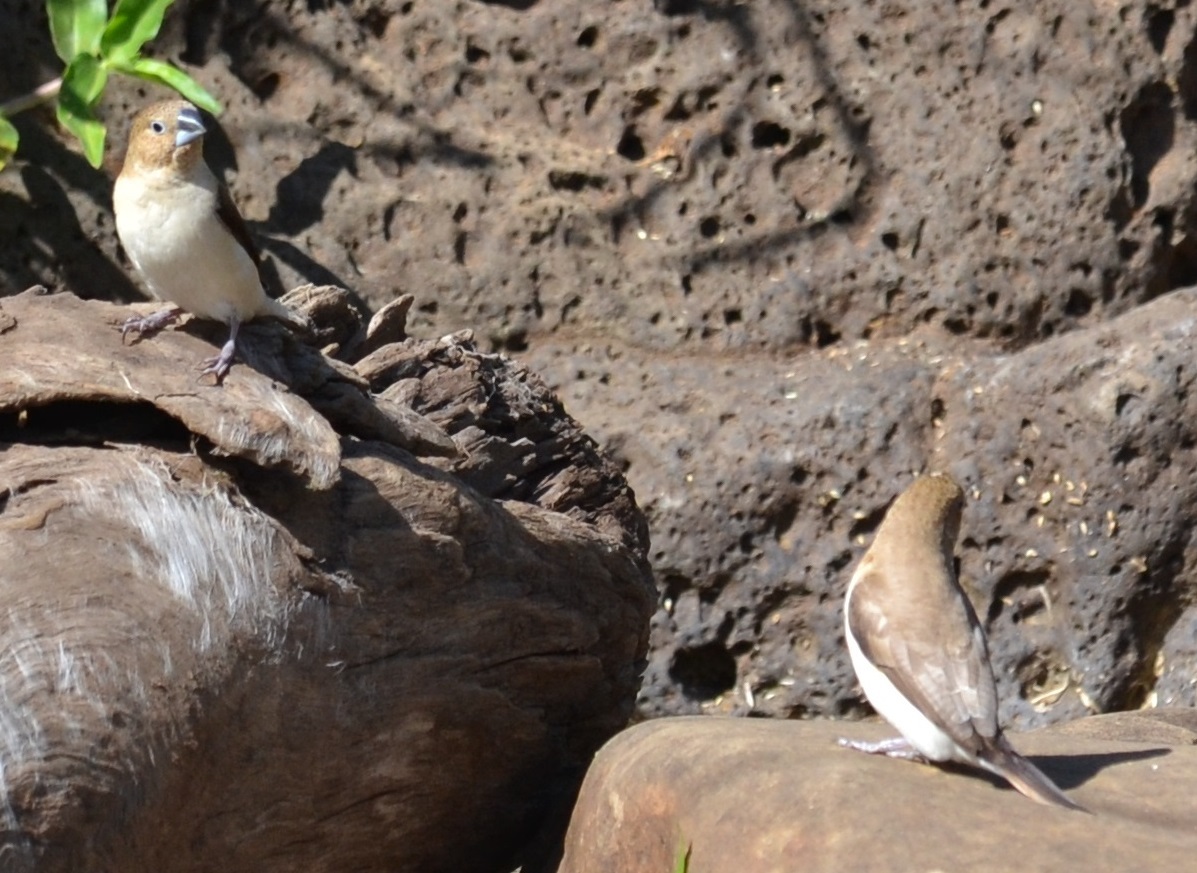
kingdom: Animalia
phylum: Chordata
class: Aves
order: Passeriformes
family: Estrildidae
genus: Euodice
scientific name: Euodice cantans
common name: African silverbill
